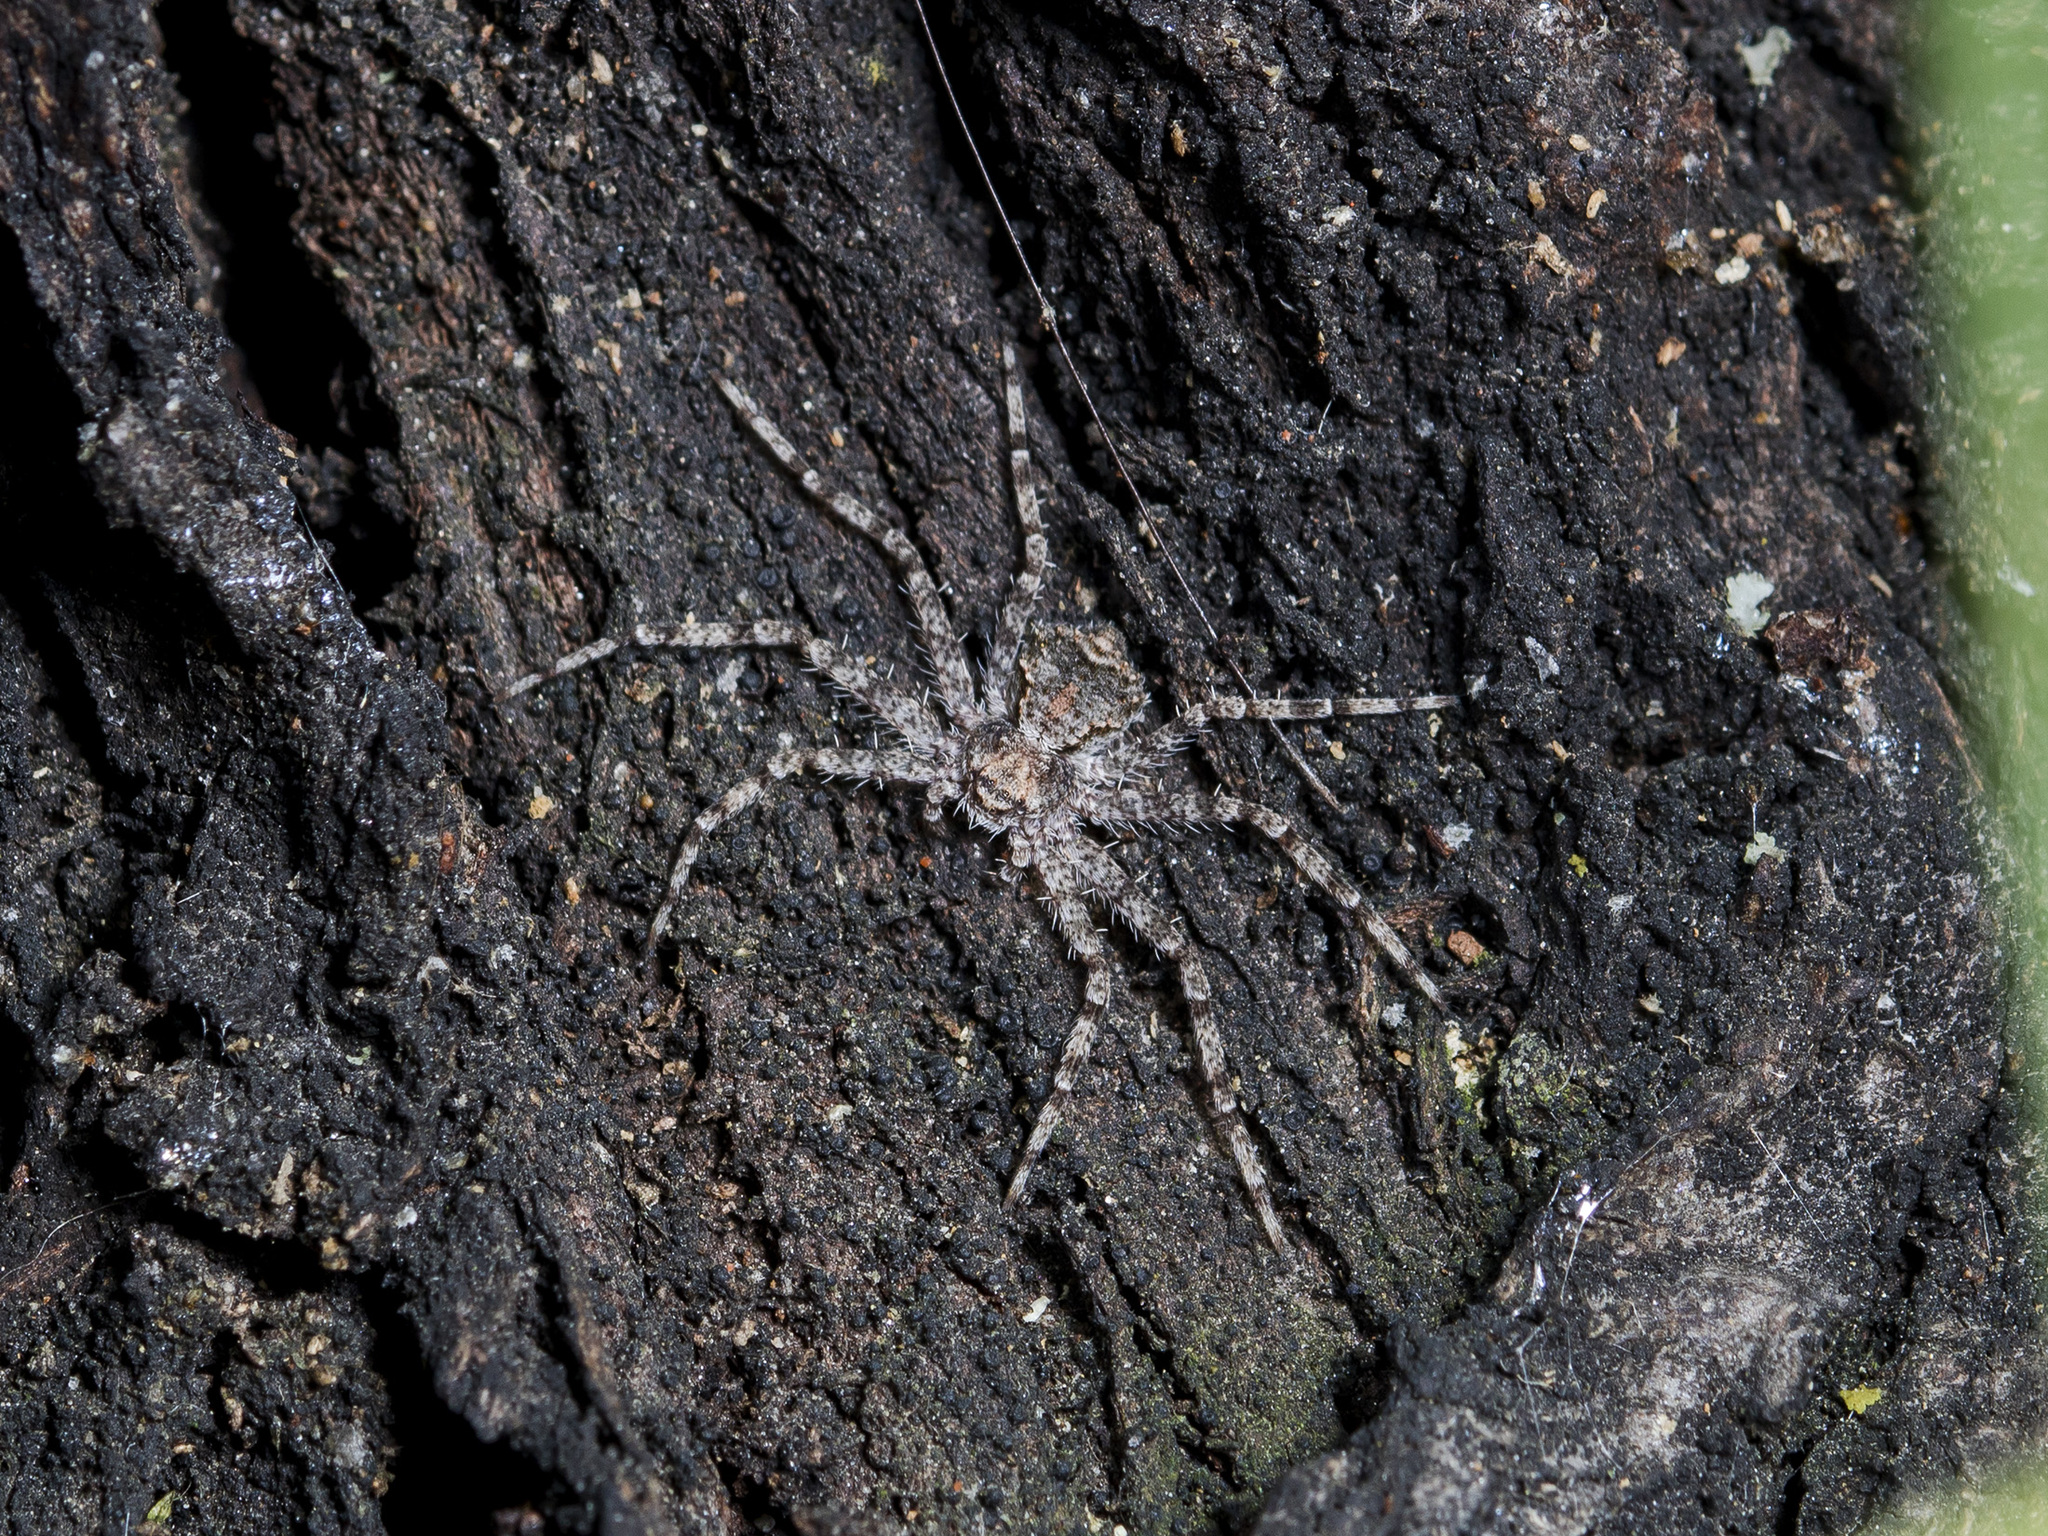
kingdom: Animalia
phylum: Arthropoda
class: Arachnida
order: Araneae
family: Philodromidae
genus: Philodromus
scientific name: Philodromus poecilus
